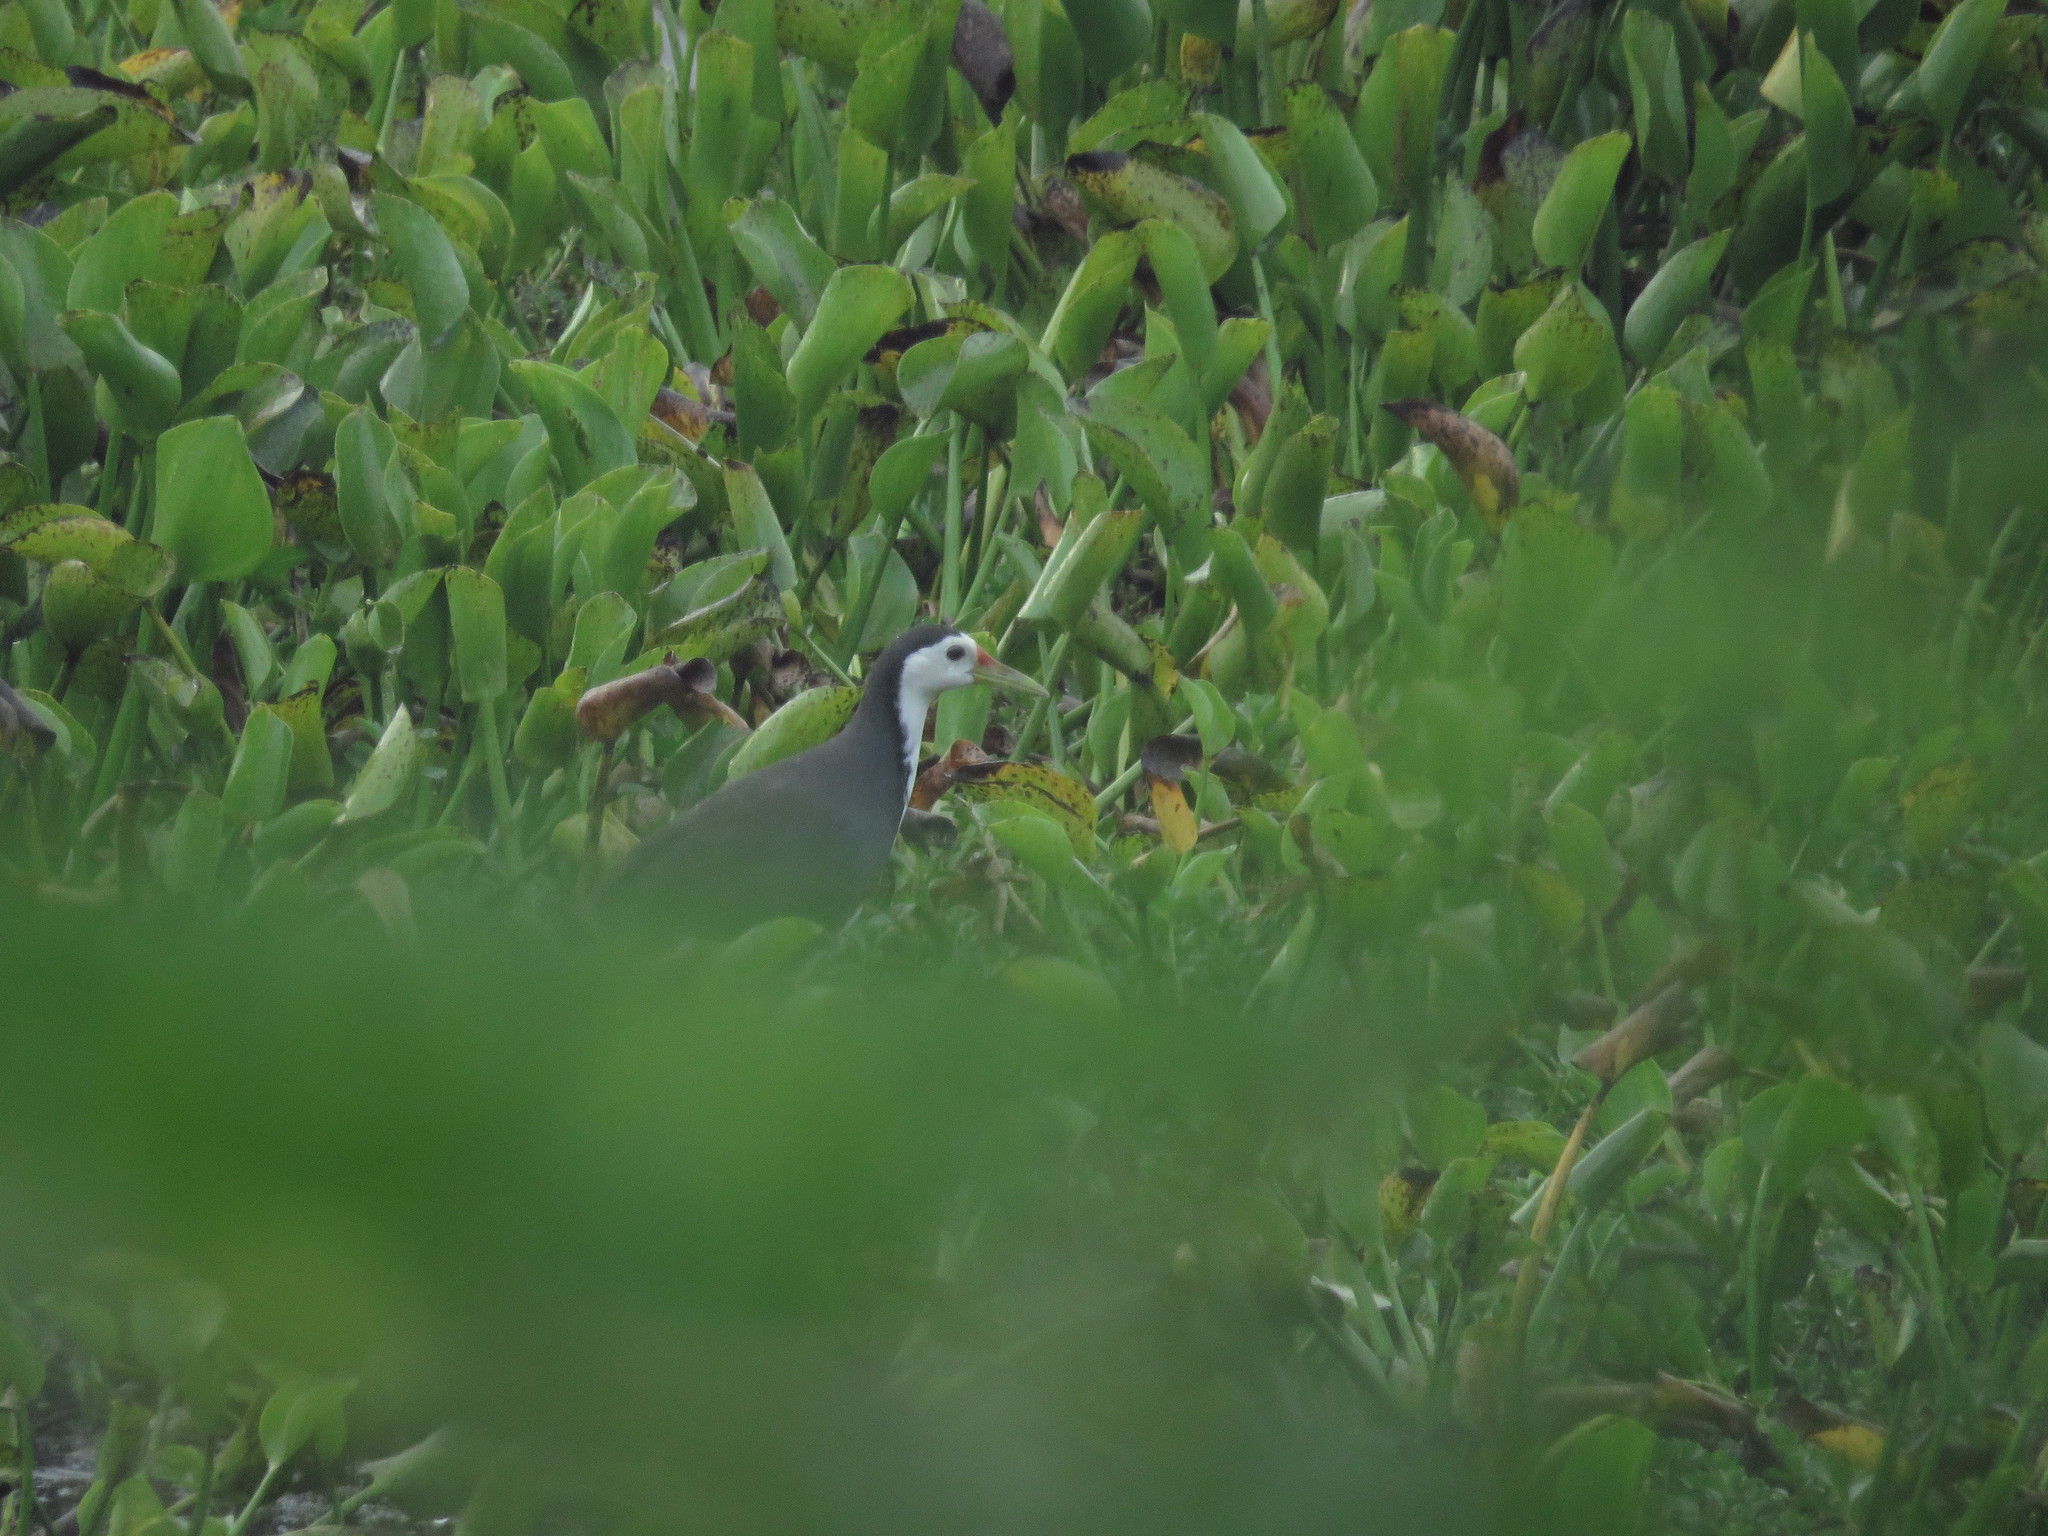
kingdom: Animalia
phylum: Chordata
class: Aves
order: Gruiformes
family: Rallidae
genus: Amaurornis
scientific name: Amaurornis phoenicurus
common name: White-breasted waterhen
